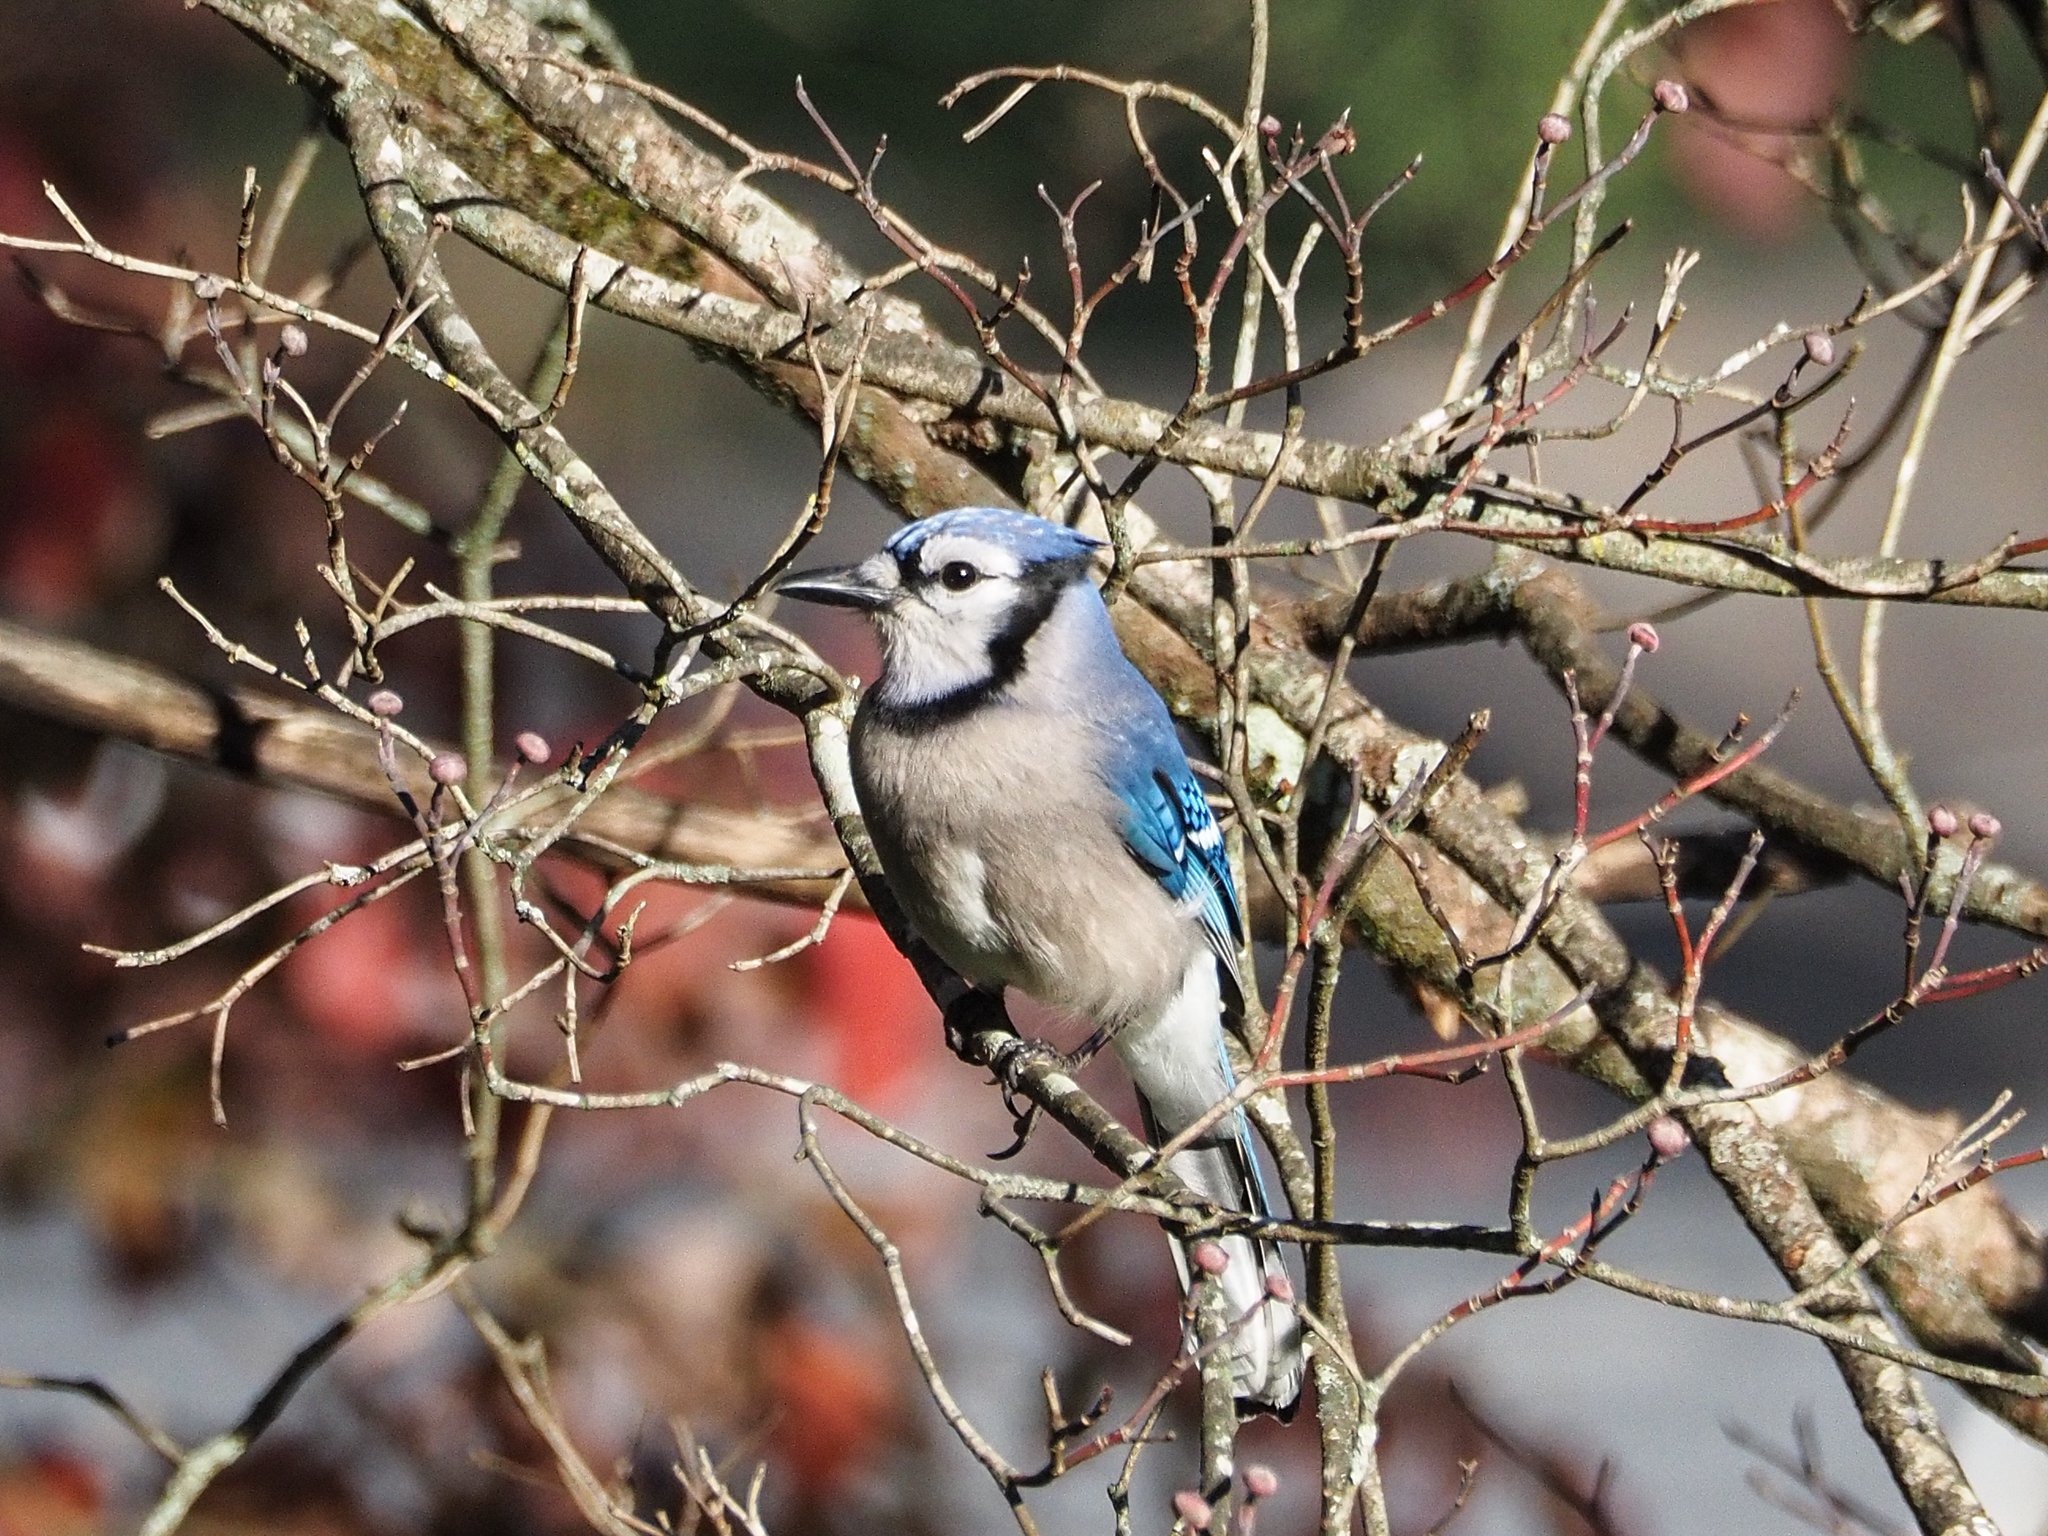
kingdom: Animalia
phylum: Chordata
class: Aves
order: Passeriformes
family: Corvidae
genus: Cyanocitta
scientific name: Cyanocitta cristata
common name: Blue jay
